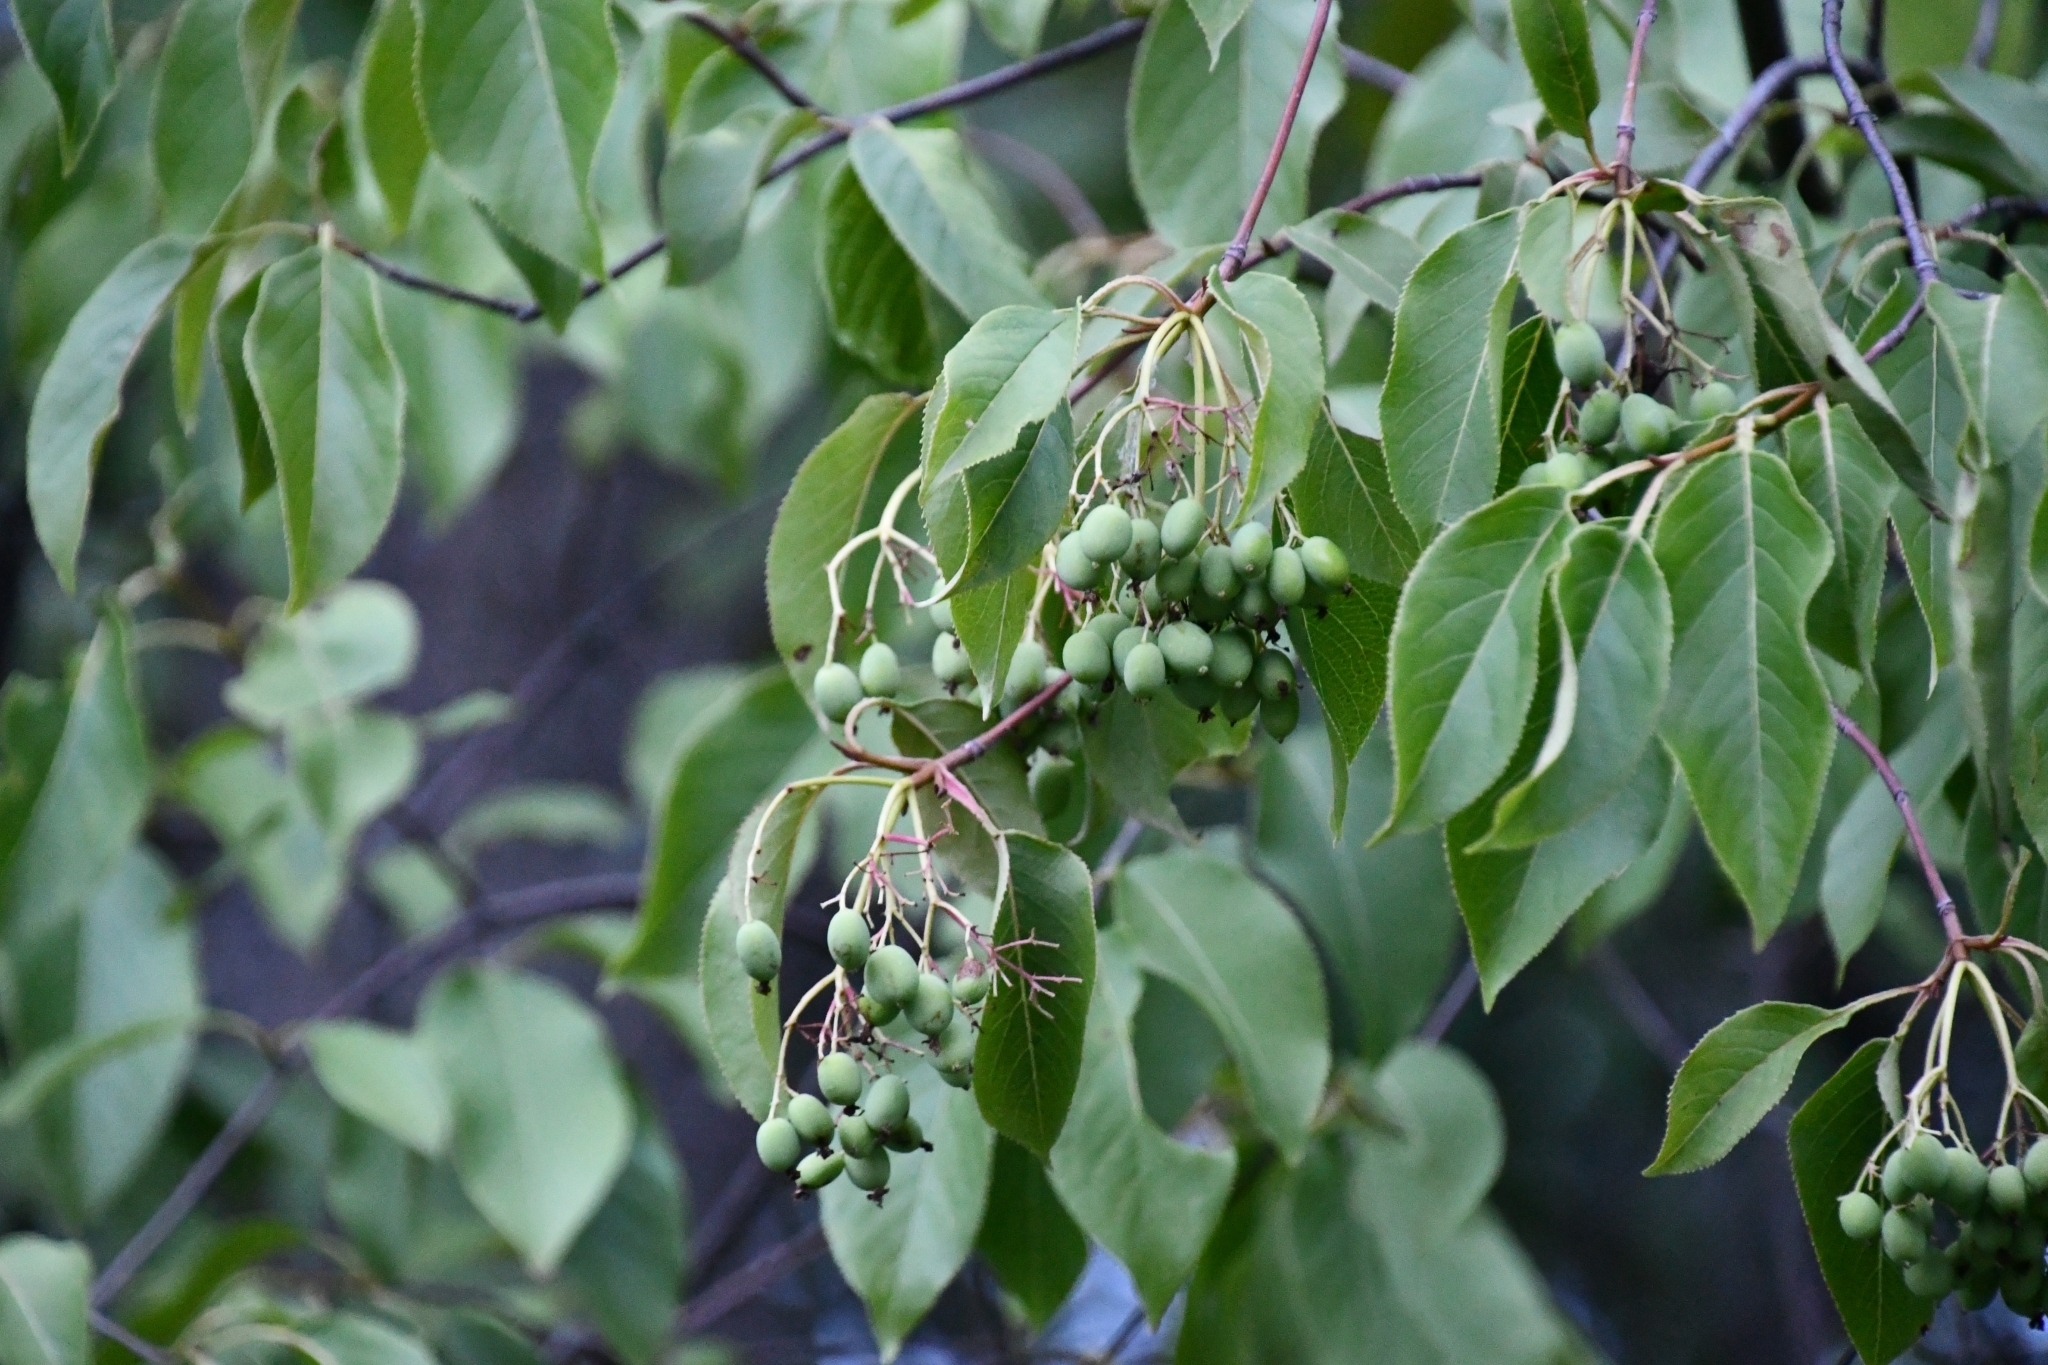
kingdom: Plantae
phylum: Tracheophyta
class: Magnoliopsida
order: Dipsacales
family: Viburnaceae
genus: Viburnum
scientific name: Viburnum lentago
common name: Black haw
